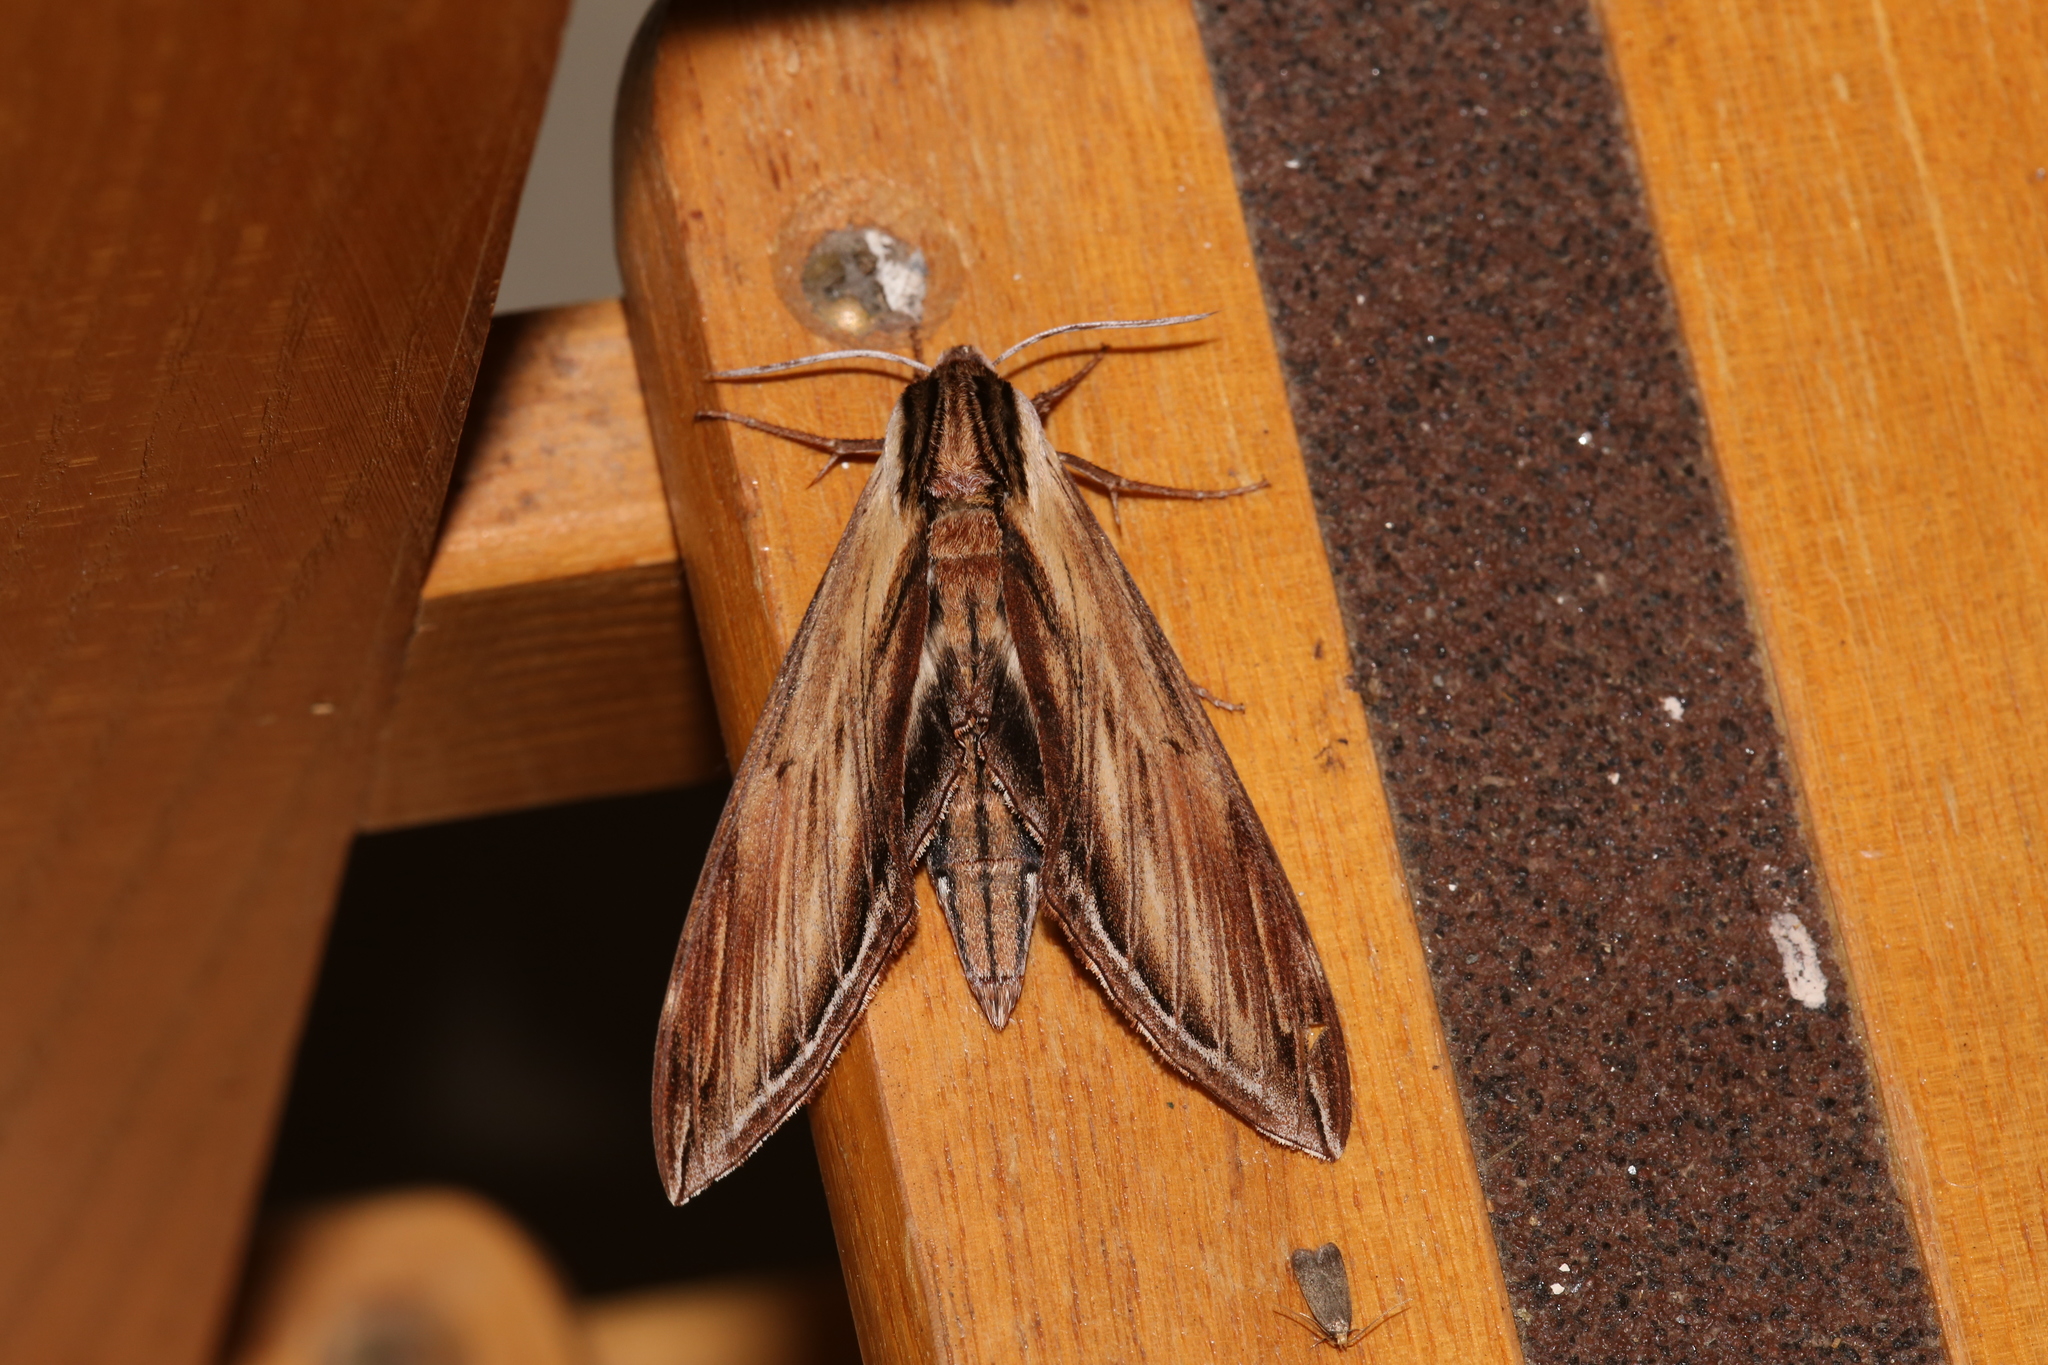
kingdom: Animalia
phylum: Arthropoda
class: Insecta
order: Lepidoptera
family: Sphingidae
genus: Sphinx
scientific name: Sphinx kalmiae
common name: Laurel sphinx
